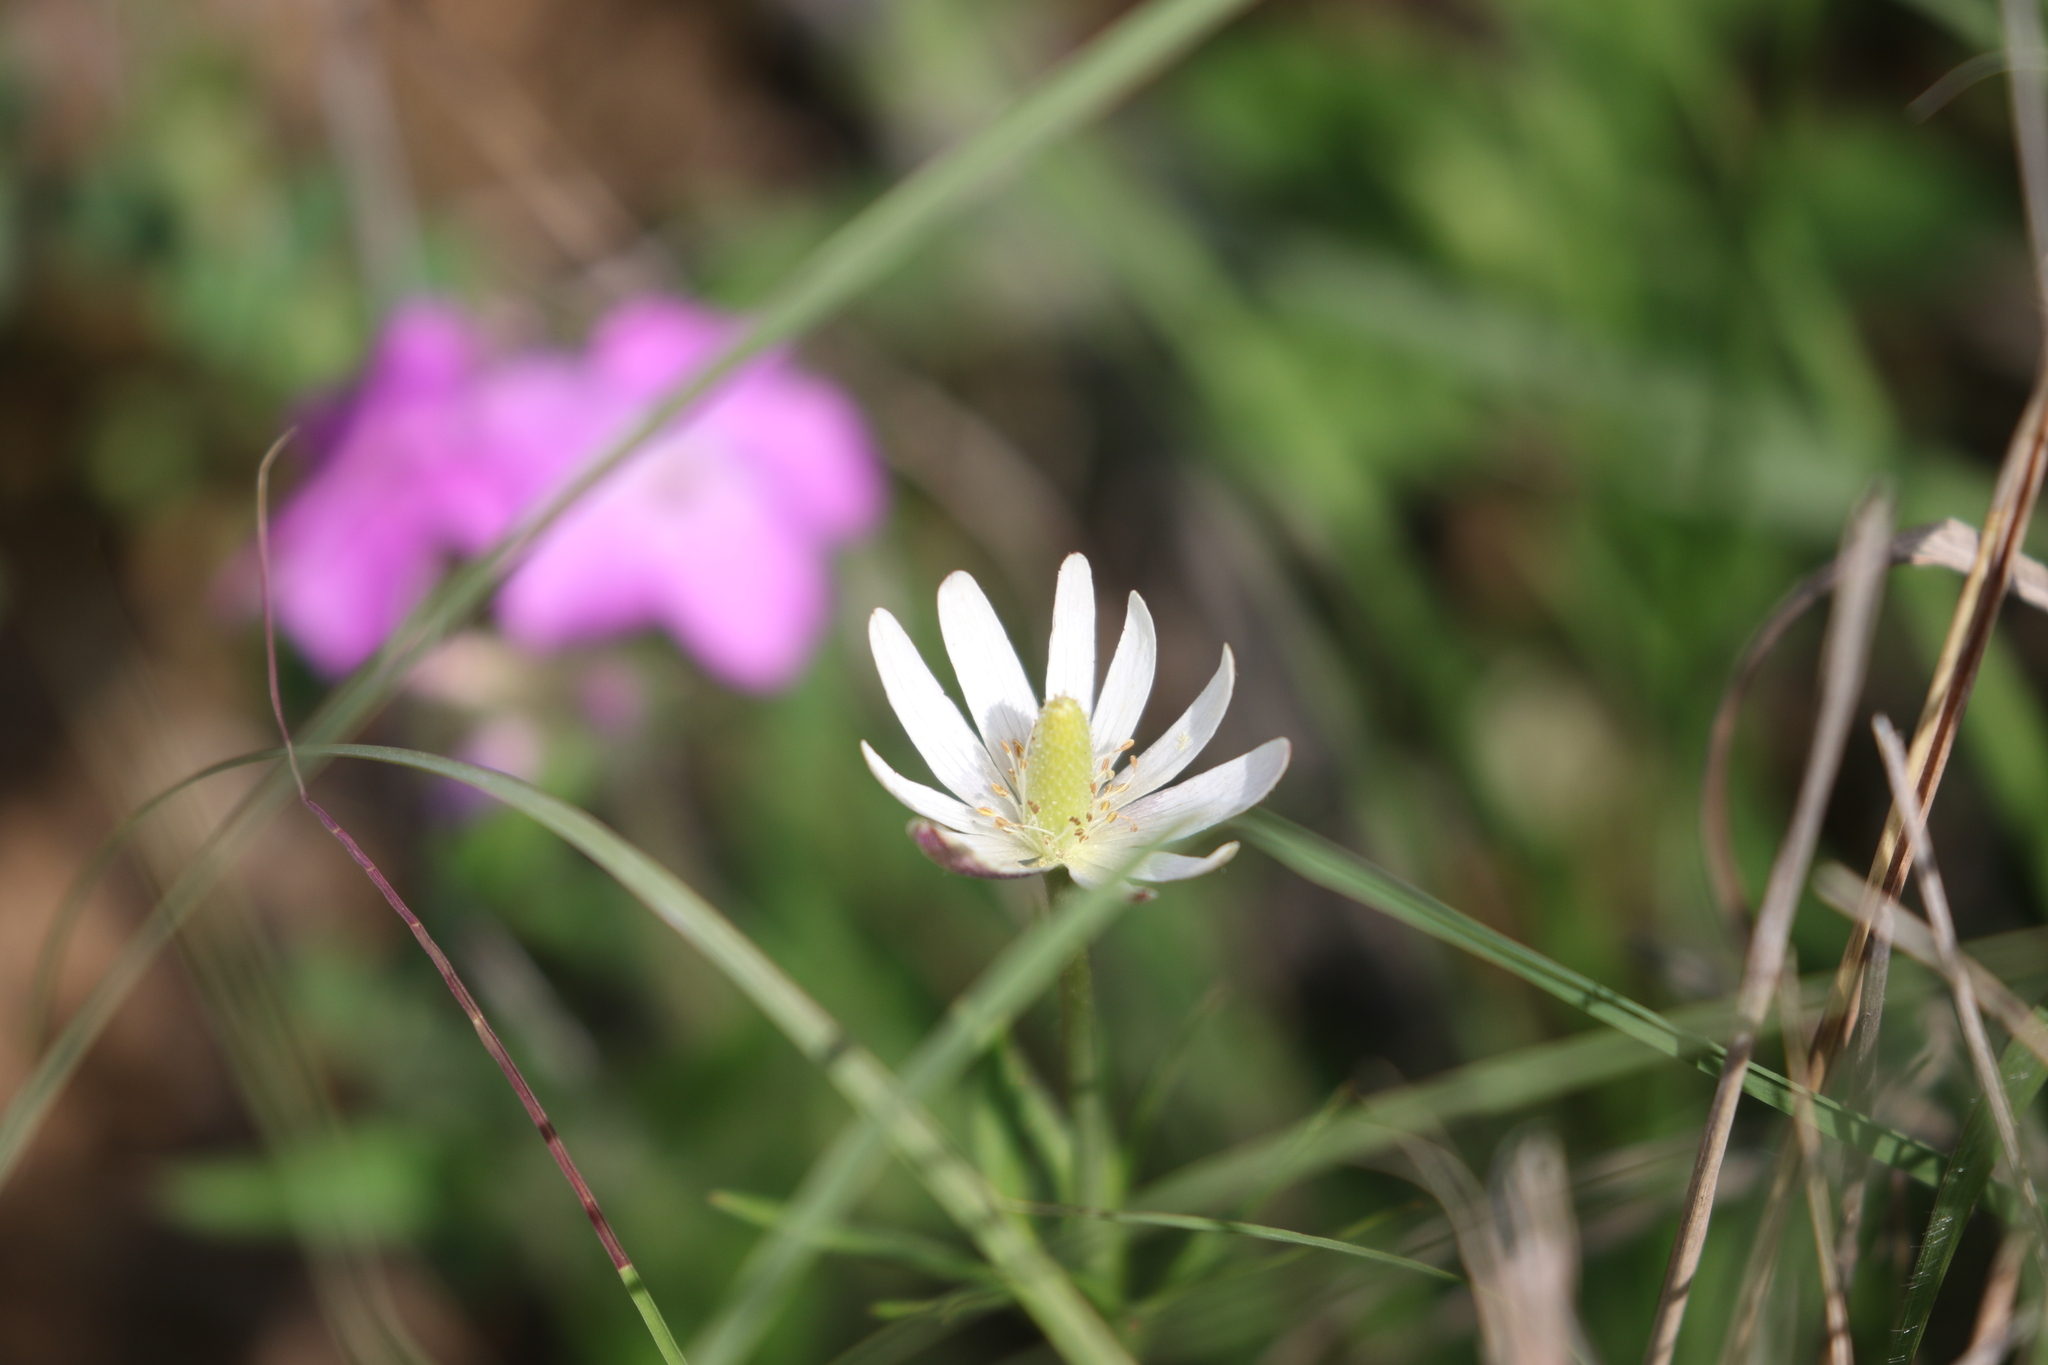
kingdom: Plantae
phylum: Tracheophyta
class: Magnoliopsida
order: Ranunculales
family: Ranunculaceae
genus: Anemone
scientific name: Anemone berlandieri
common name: Ten-petal anemone
